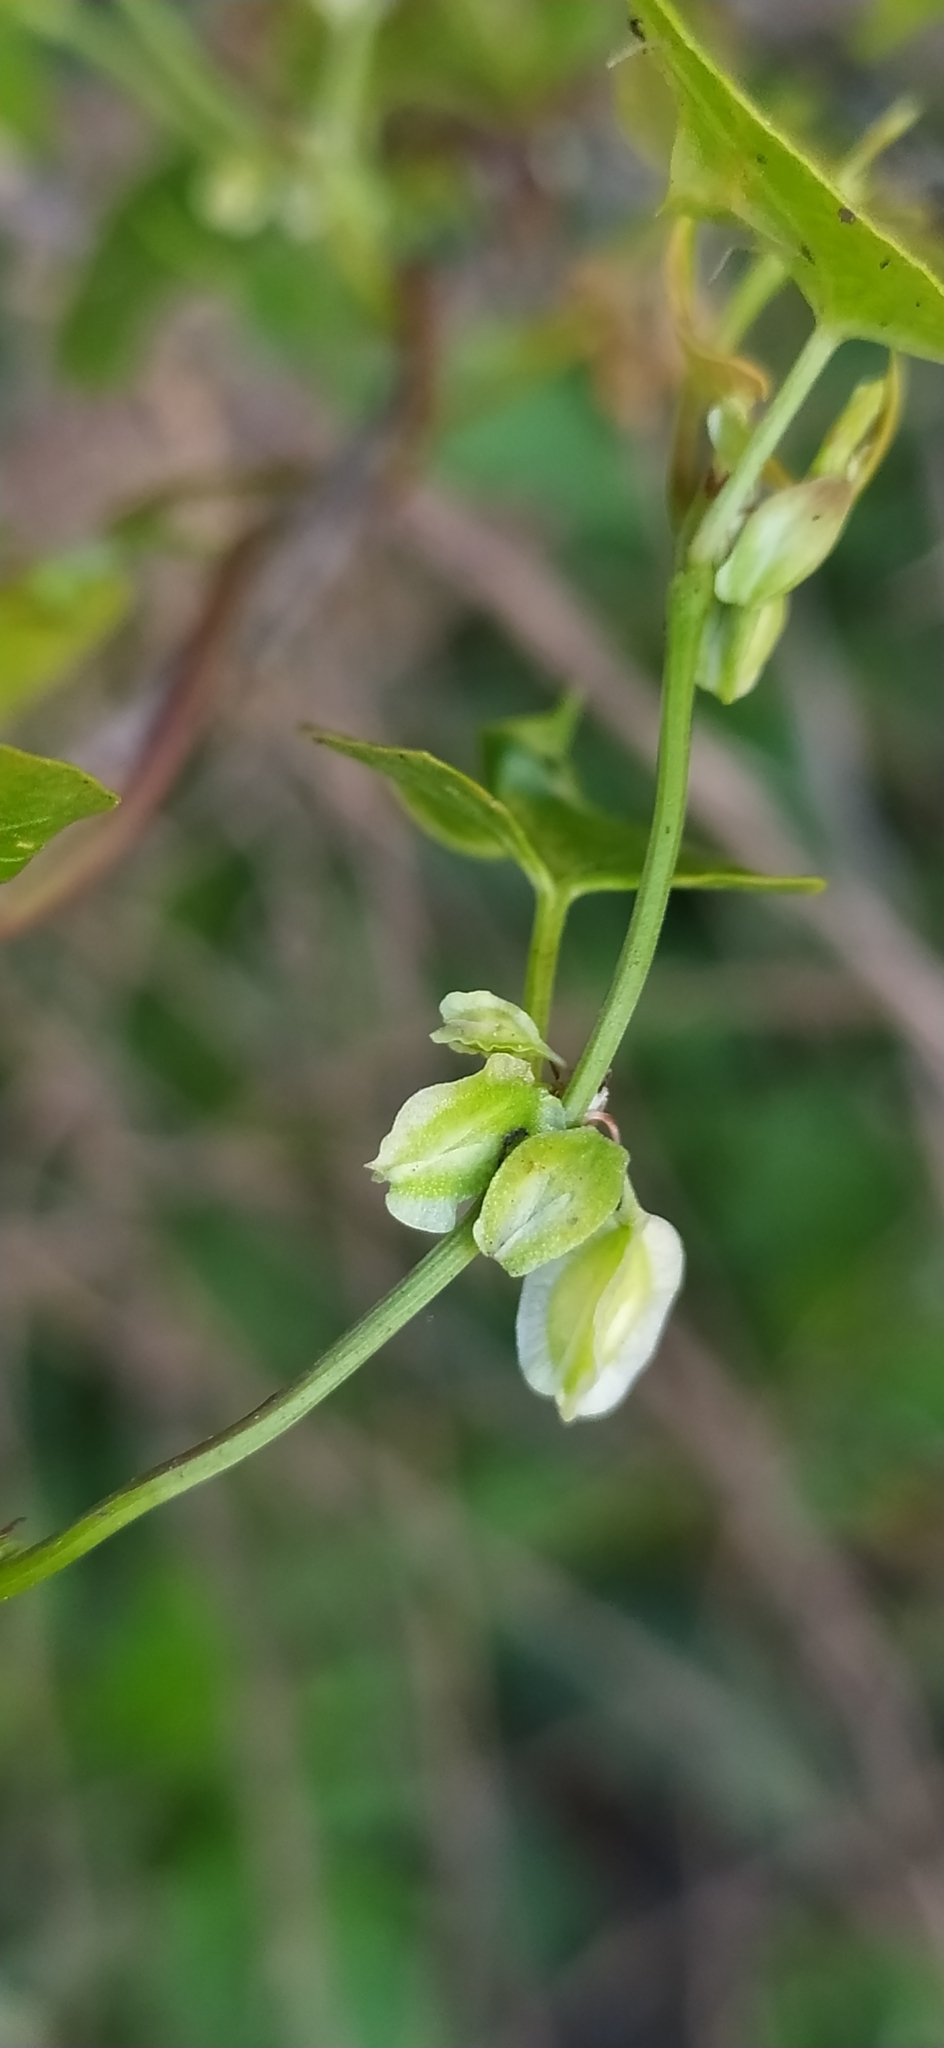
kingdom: Plantae
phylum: Tracheophyta
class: Magnoliopsida
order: Caryophyllales
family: Polygonaceae
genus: Fallopia
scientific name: Fallopia dumetorum
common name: Copse-bindweed
